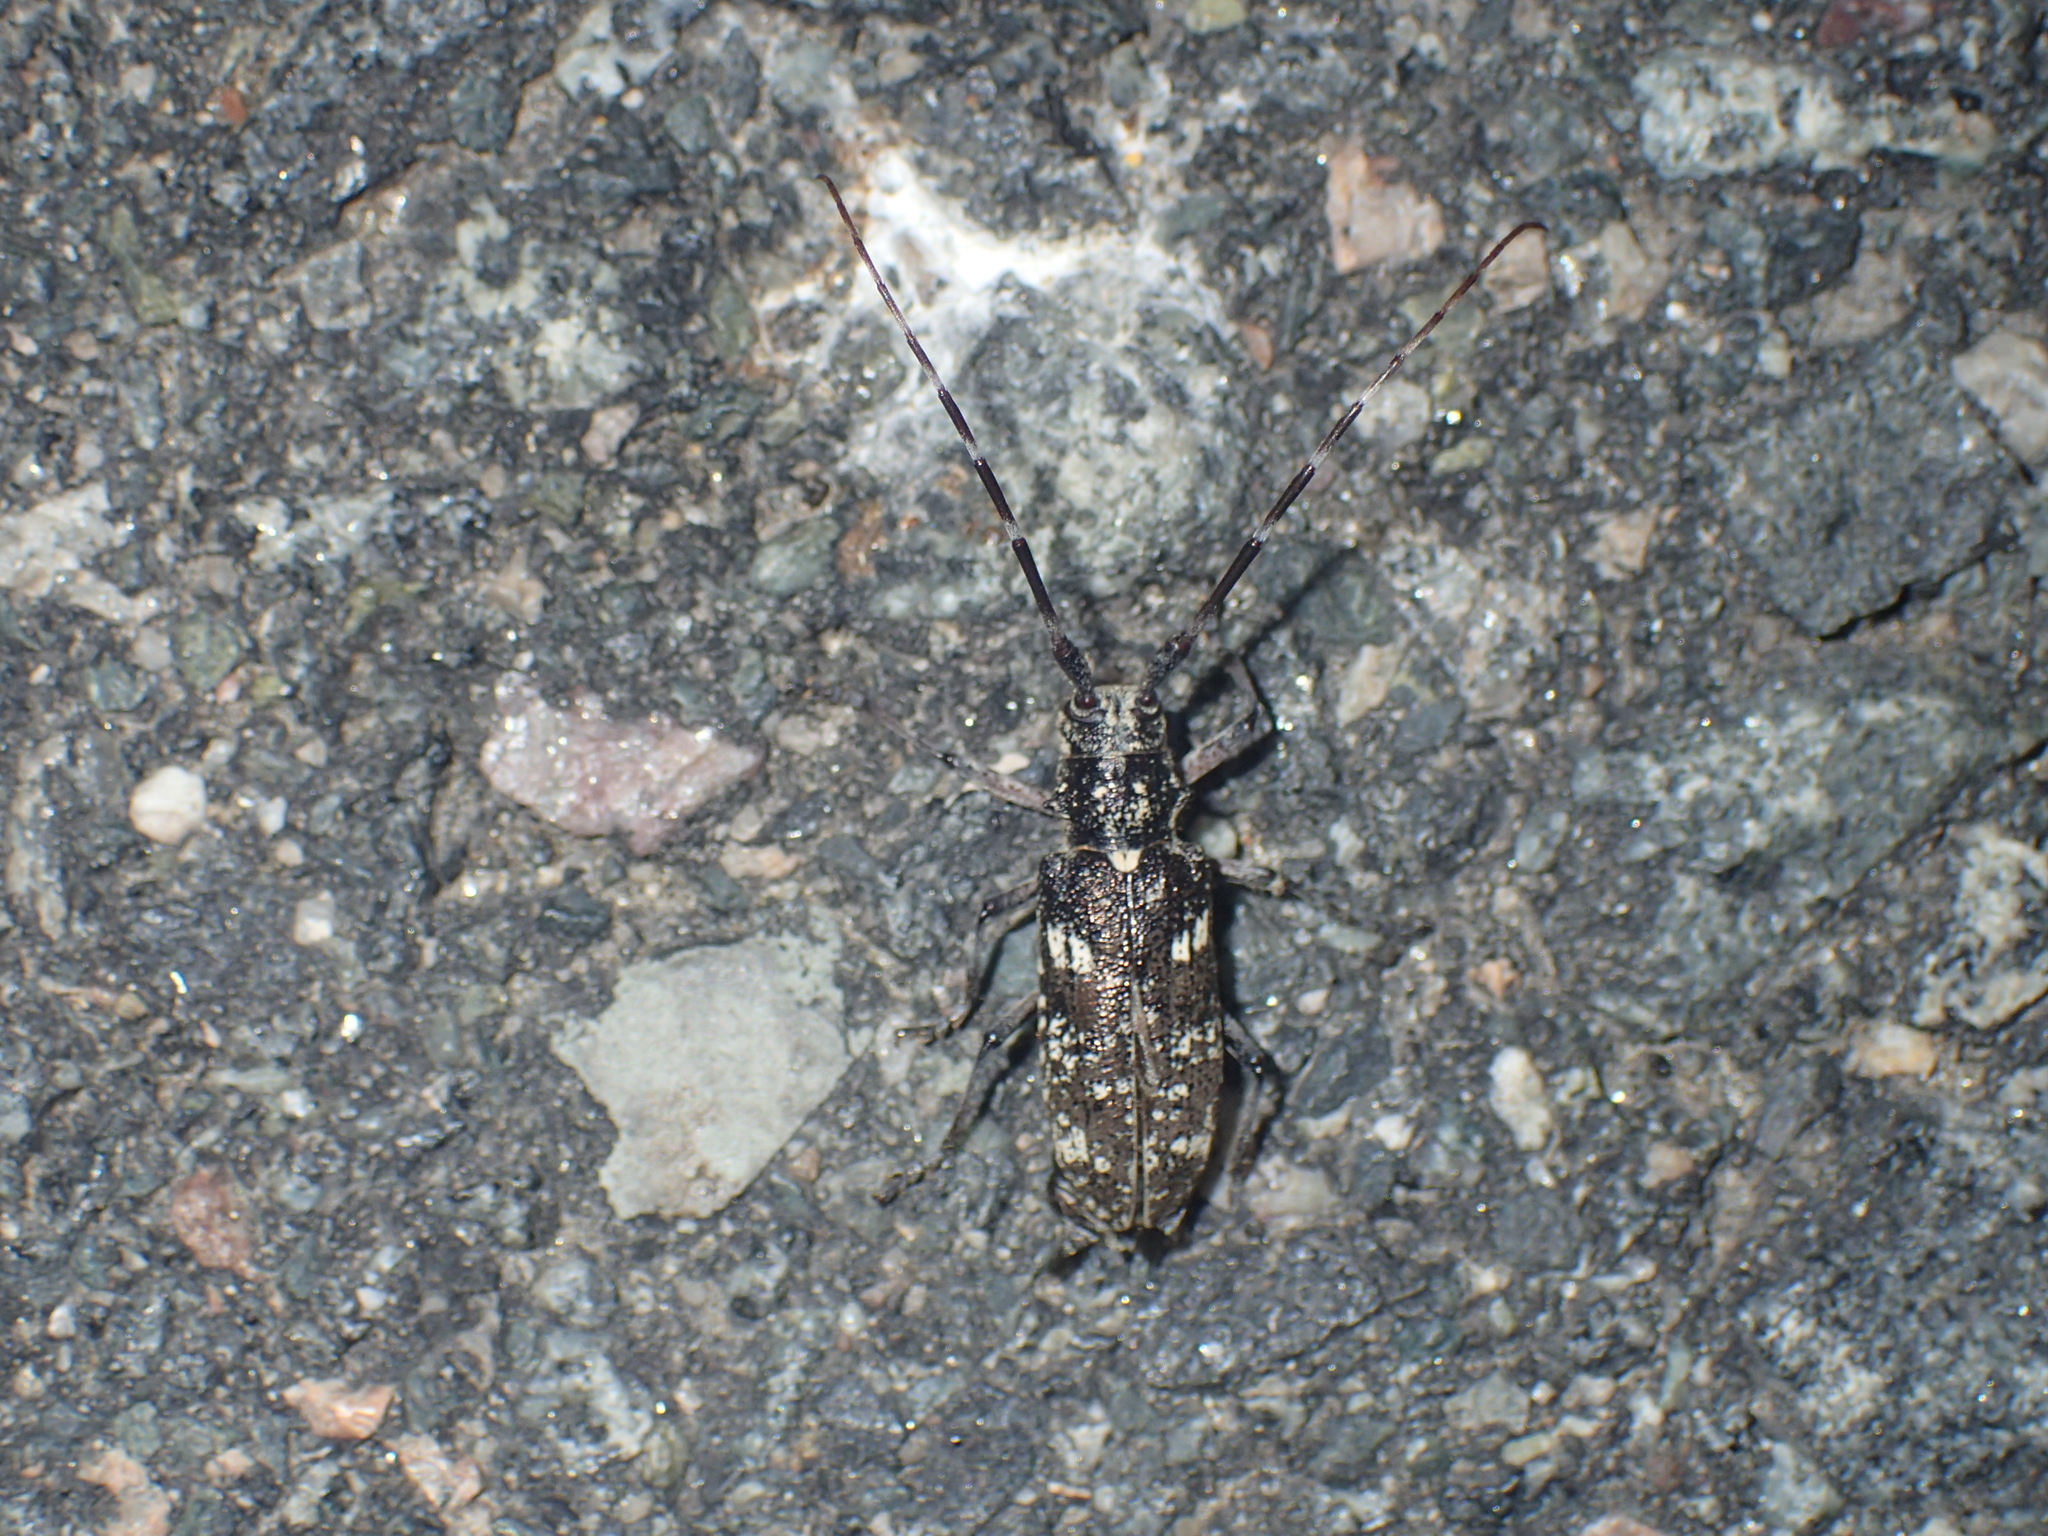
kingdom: Animalia
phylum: Arthropoda
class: Insecta
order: Coleoptera
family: Cerambycidae
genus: Monochamus
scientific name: Monochamus scutellatus
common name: White-spotted sawyer beetle
